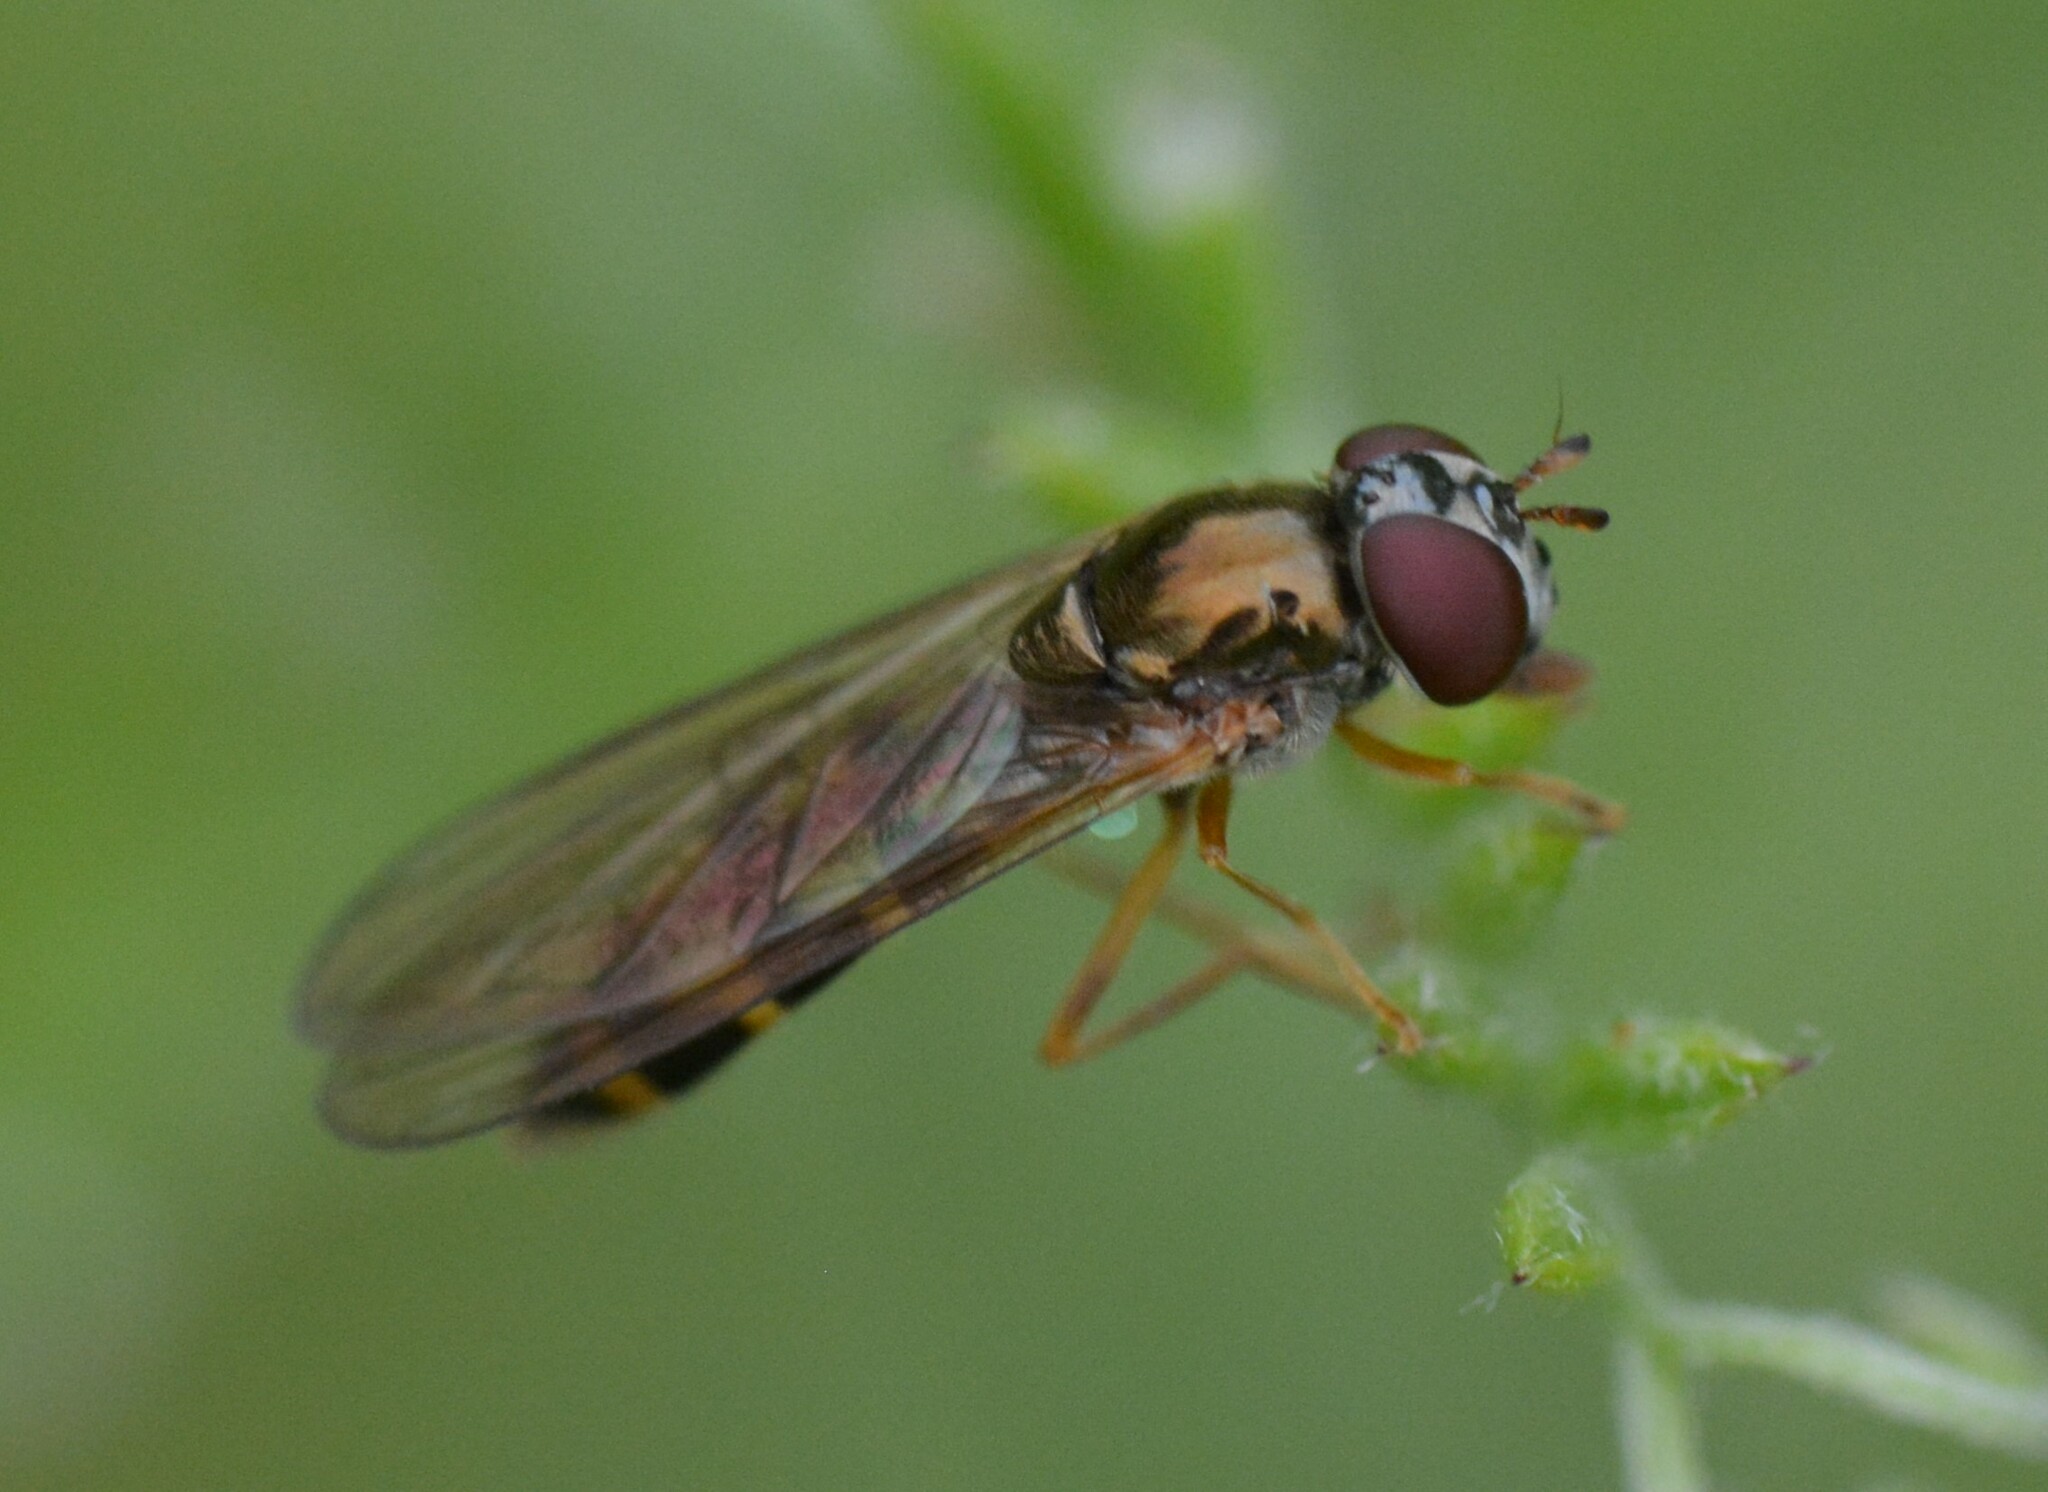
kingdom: Animalia
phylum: Arthropoda
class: Insecta
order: Diptera
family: Syrphidae
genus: Melanostoma
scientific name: Melanostoma mellina
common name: Hover fly
